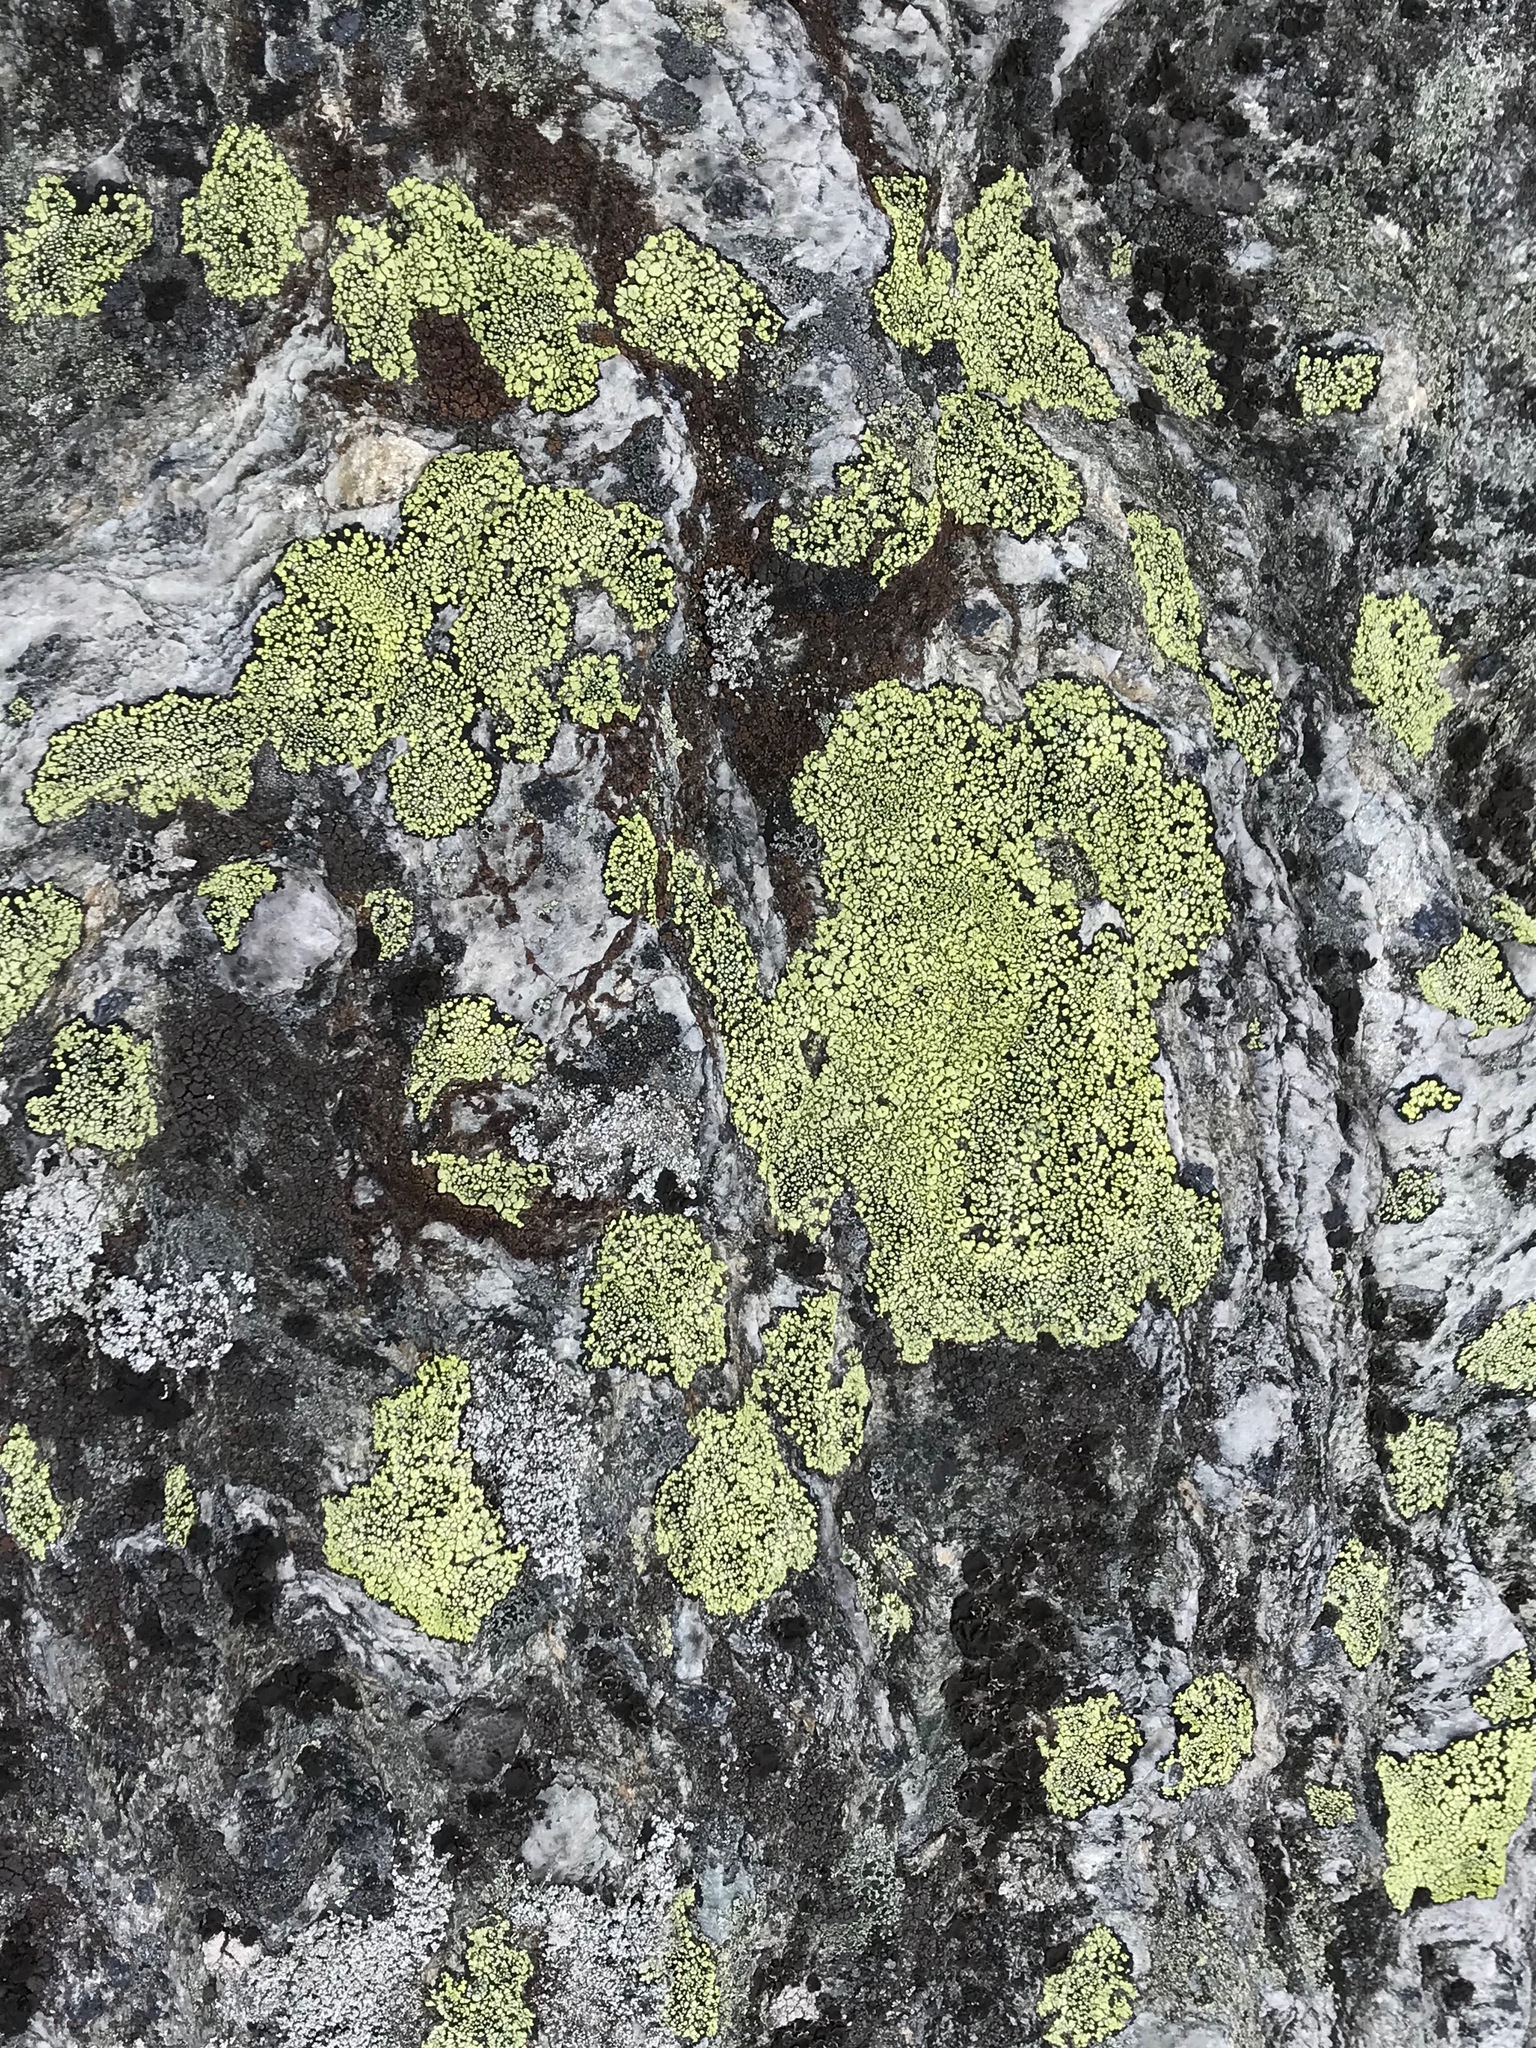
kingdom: Fungi
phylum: Ascomycota
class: Lecanoromycetes
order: Rhizocarpales
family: Rhizocarpaceae
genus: Rhizocarpon
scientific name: Rhizocarpon geographicum
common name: Yellow map lichen
